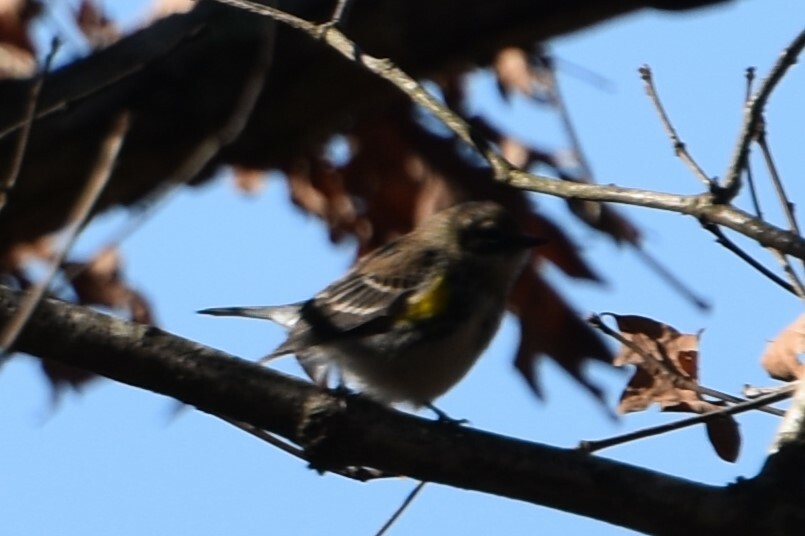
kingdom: Animalia
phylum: Chordata
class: Aves
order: Passeriformes
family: Parulidae
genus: Setophaga
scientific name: Setophaga coronata
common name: Myrtle warbler
